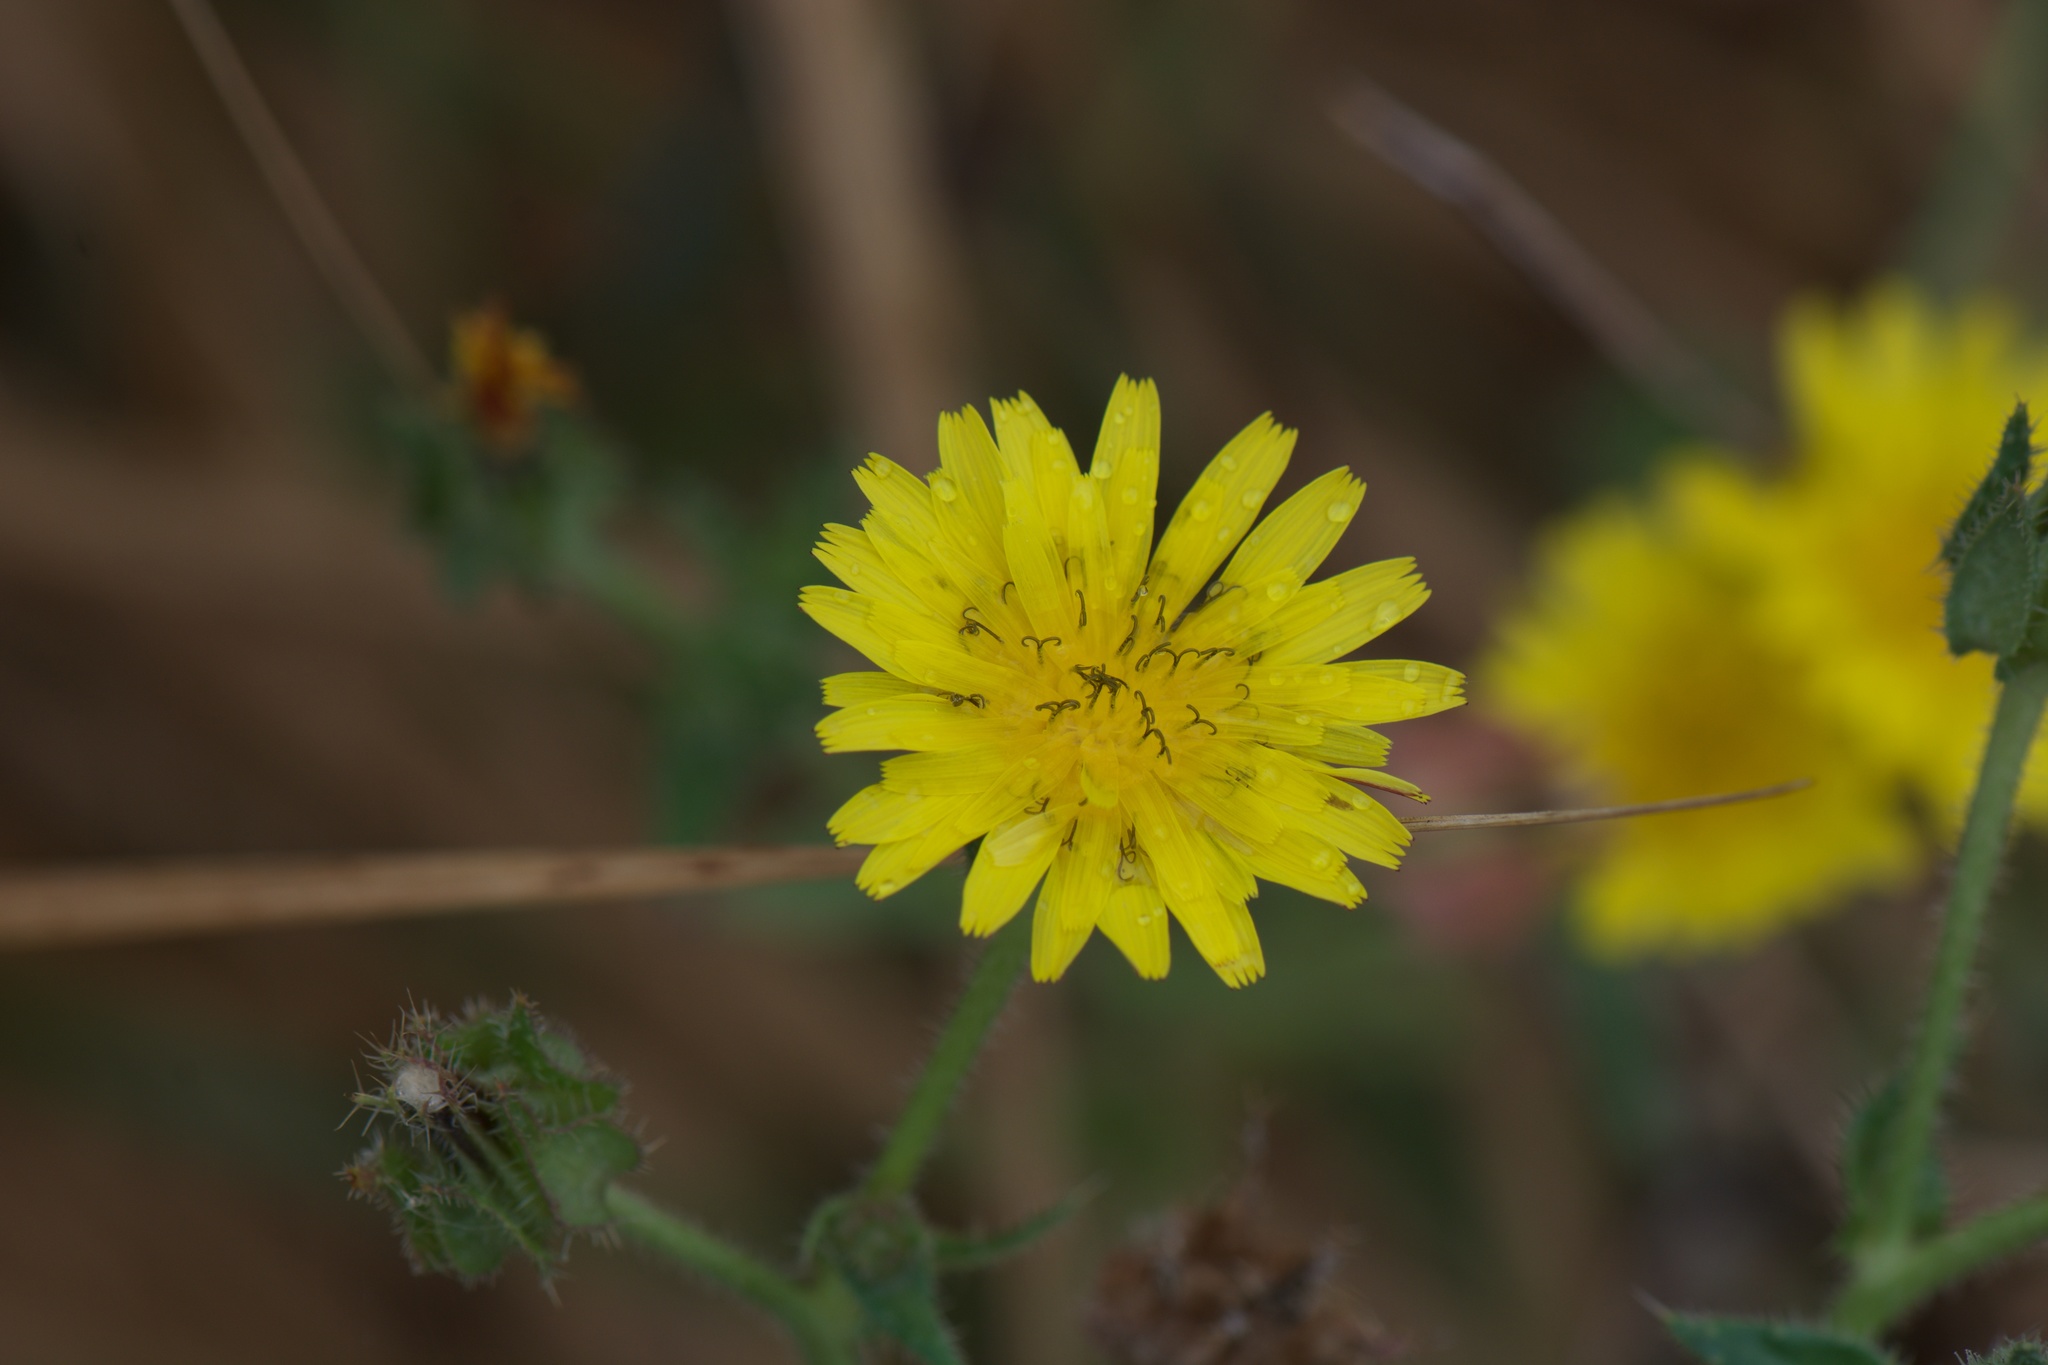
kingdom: Plantae
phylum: Tracheophyta
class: Magnoliopsida
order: Asterales
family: Asteraceae
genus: Helminthotheca
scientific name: Helminthotheca echioides
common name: Ox-tongue
